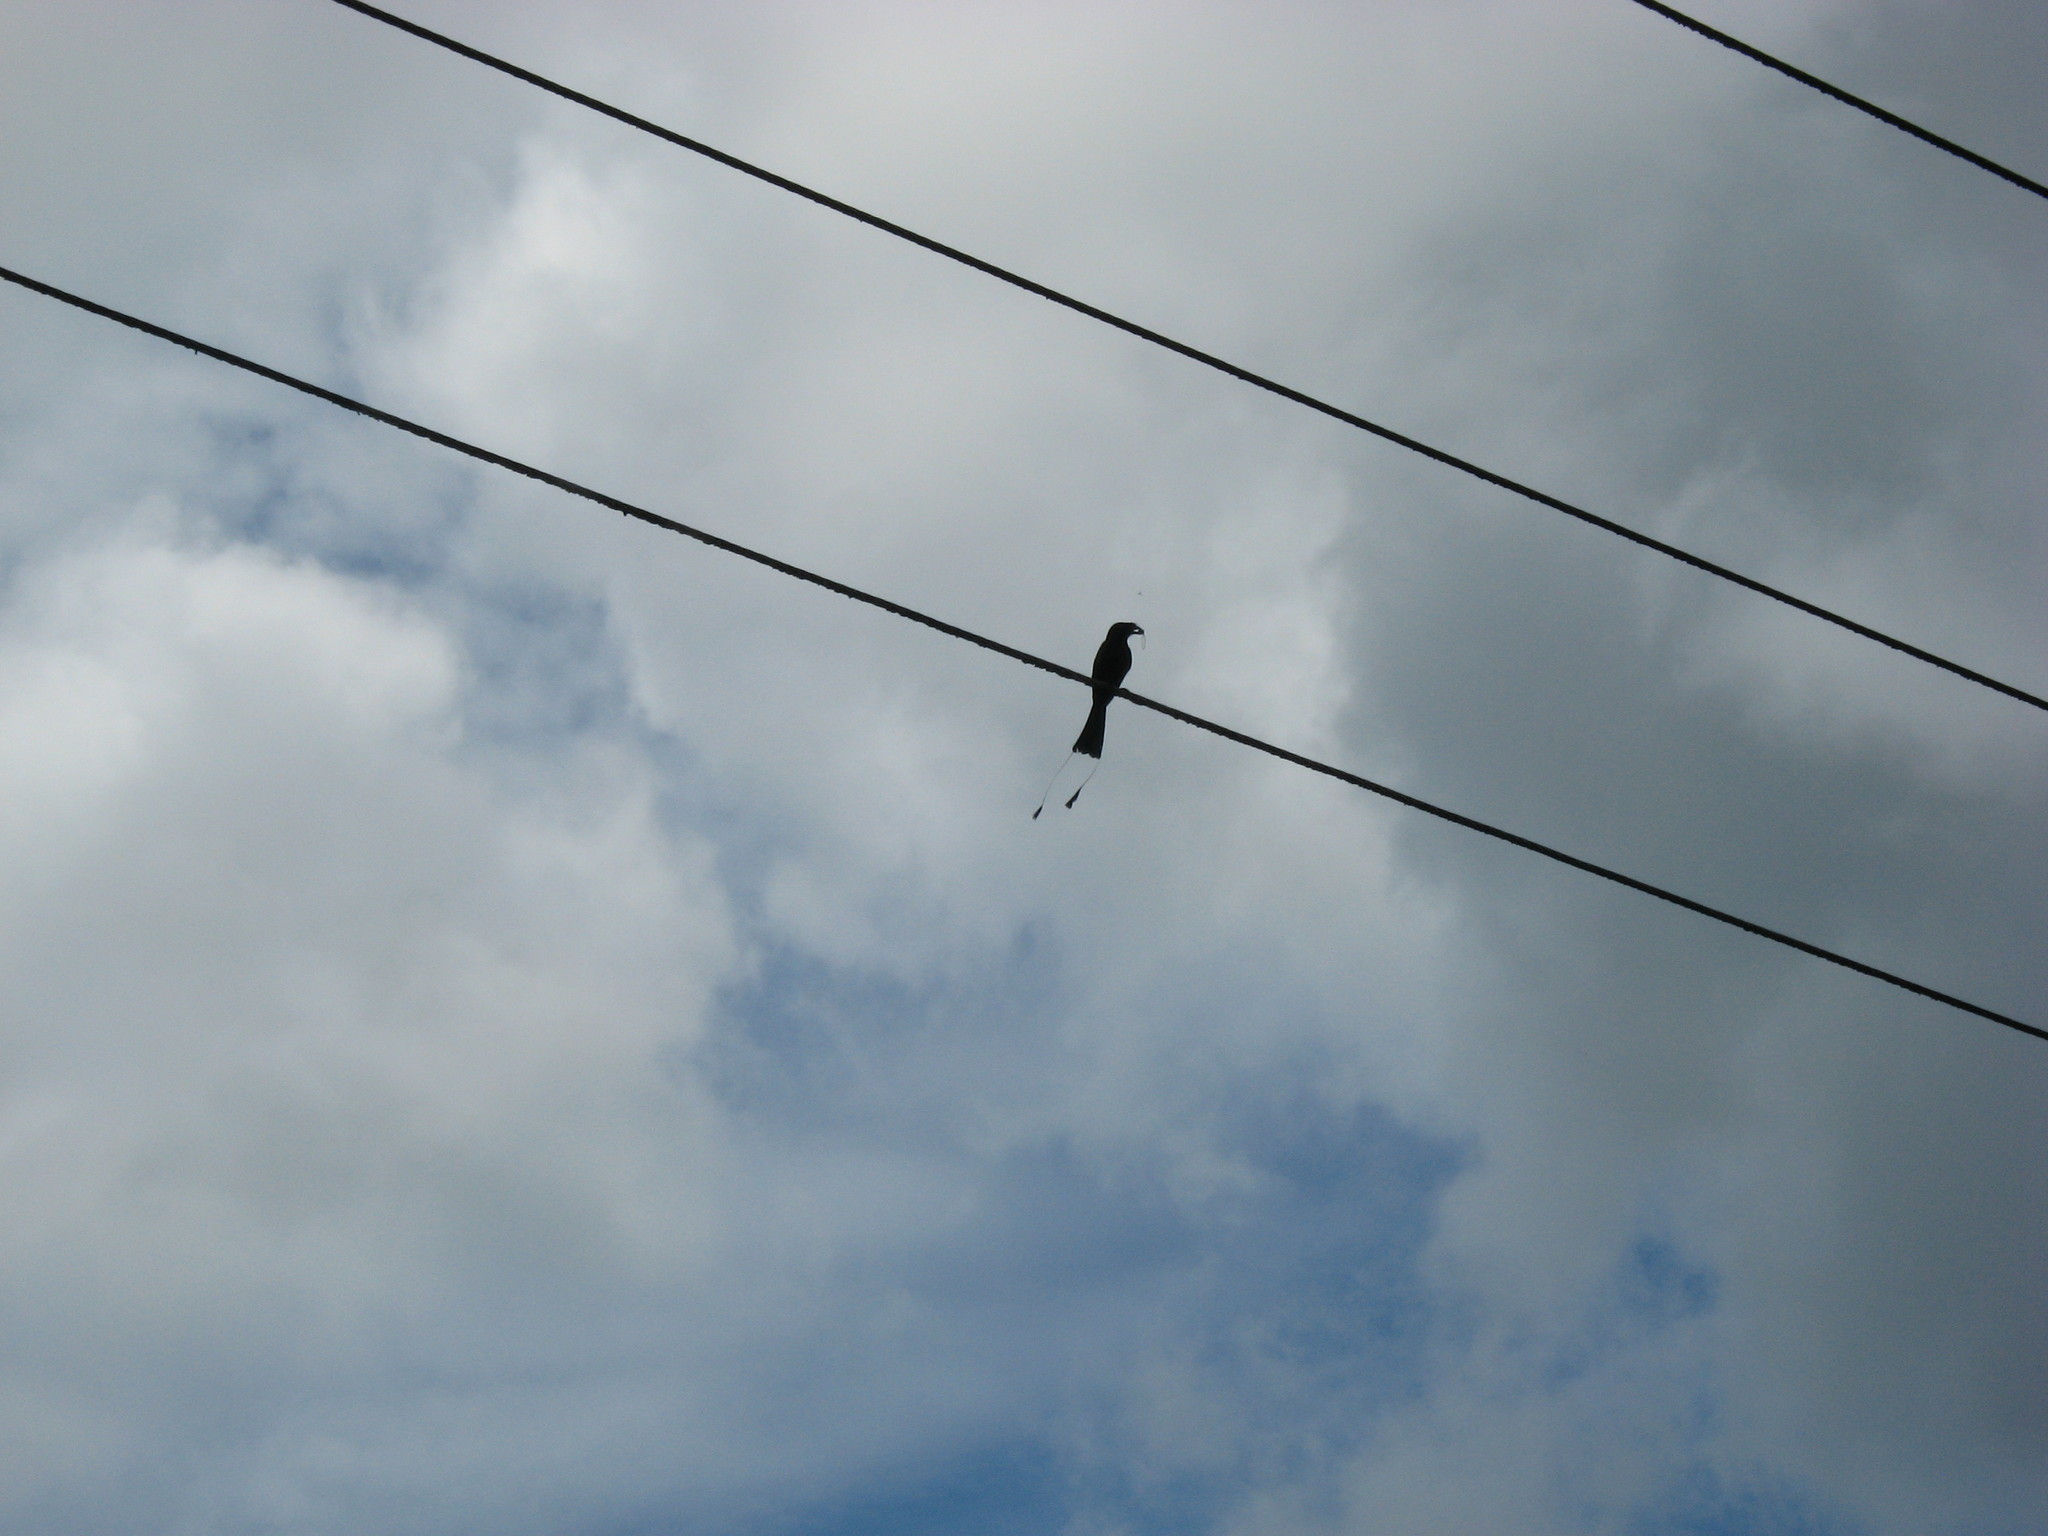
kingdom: Animalia
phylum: Chordata
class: Aves
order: Passeriformes
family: Dicruridae
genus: Dicrurus
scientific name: Dicrurus paradiseus
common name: Greater racket-tailed drongo
